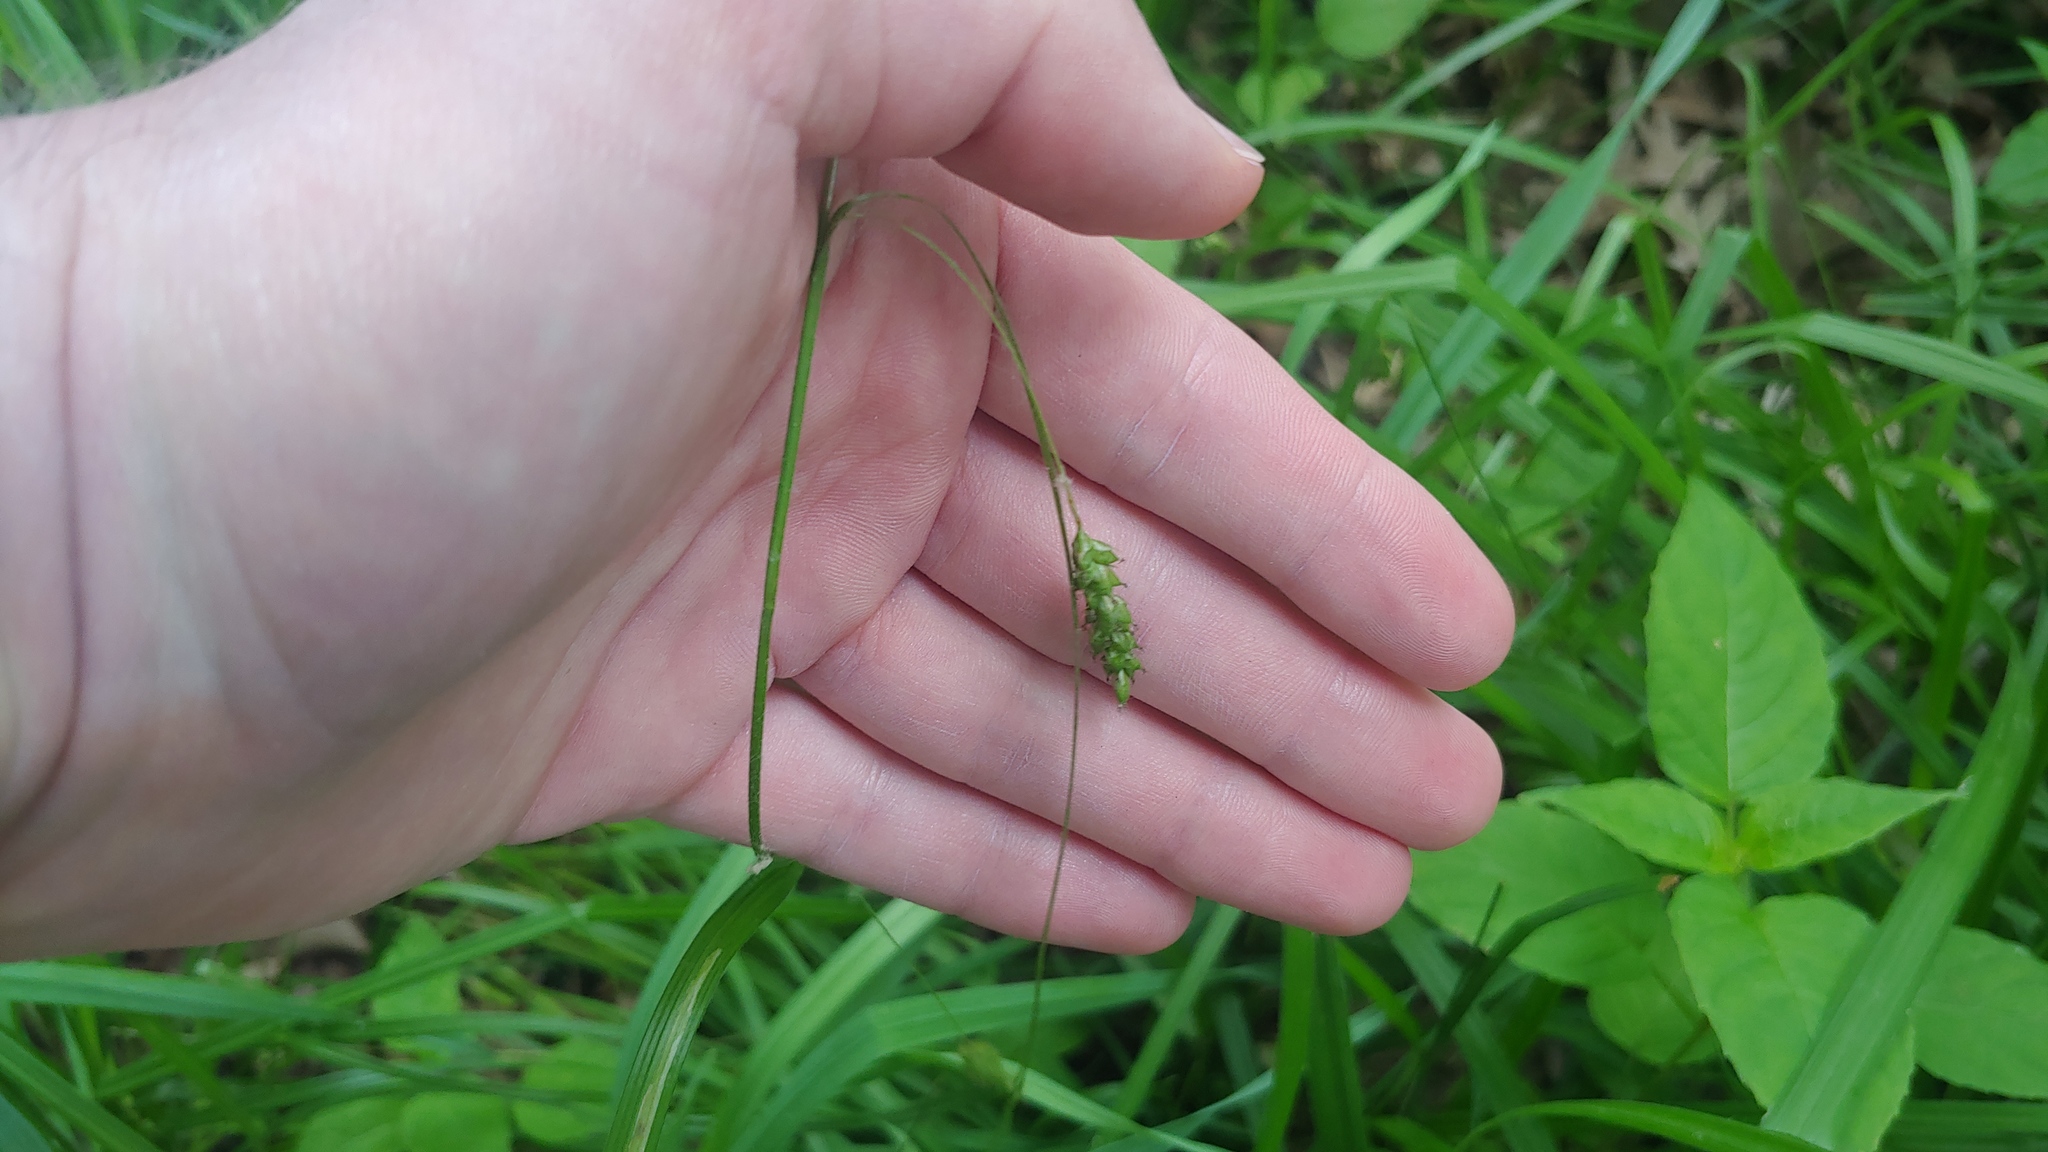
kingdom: Plantae
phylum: Tracheophyta
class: Liliopsida
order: Poales
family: Cyperaceae
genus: Carex
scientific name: Carex formosa
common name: Awnless graceful sedge
